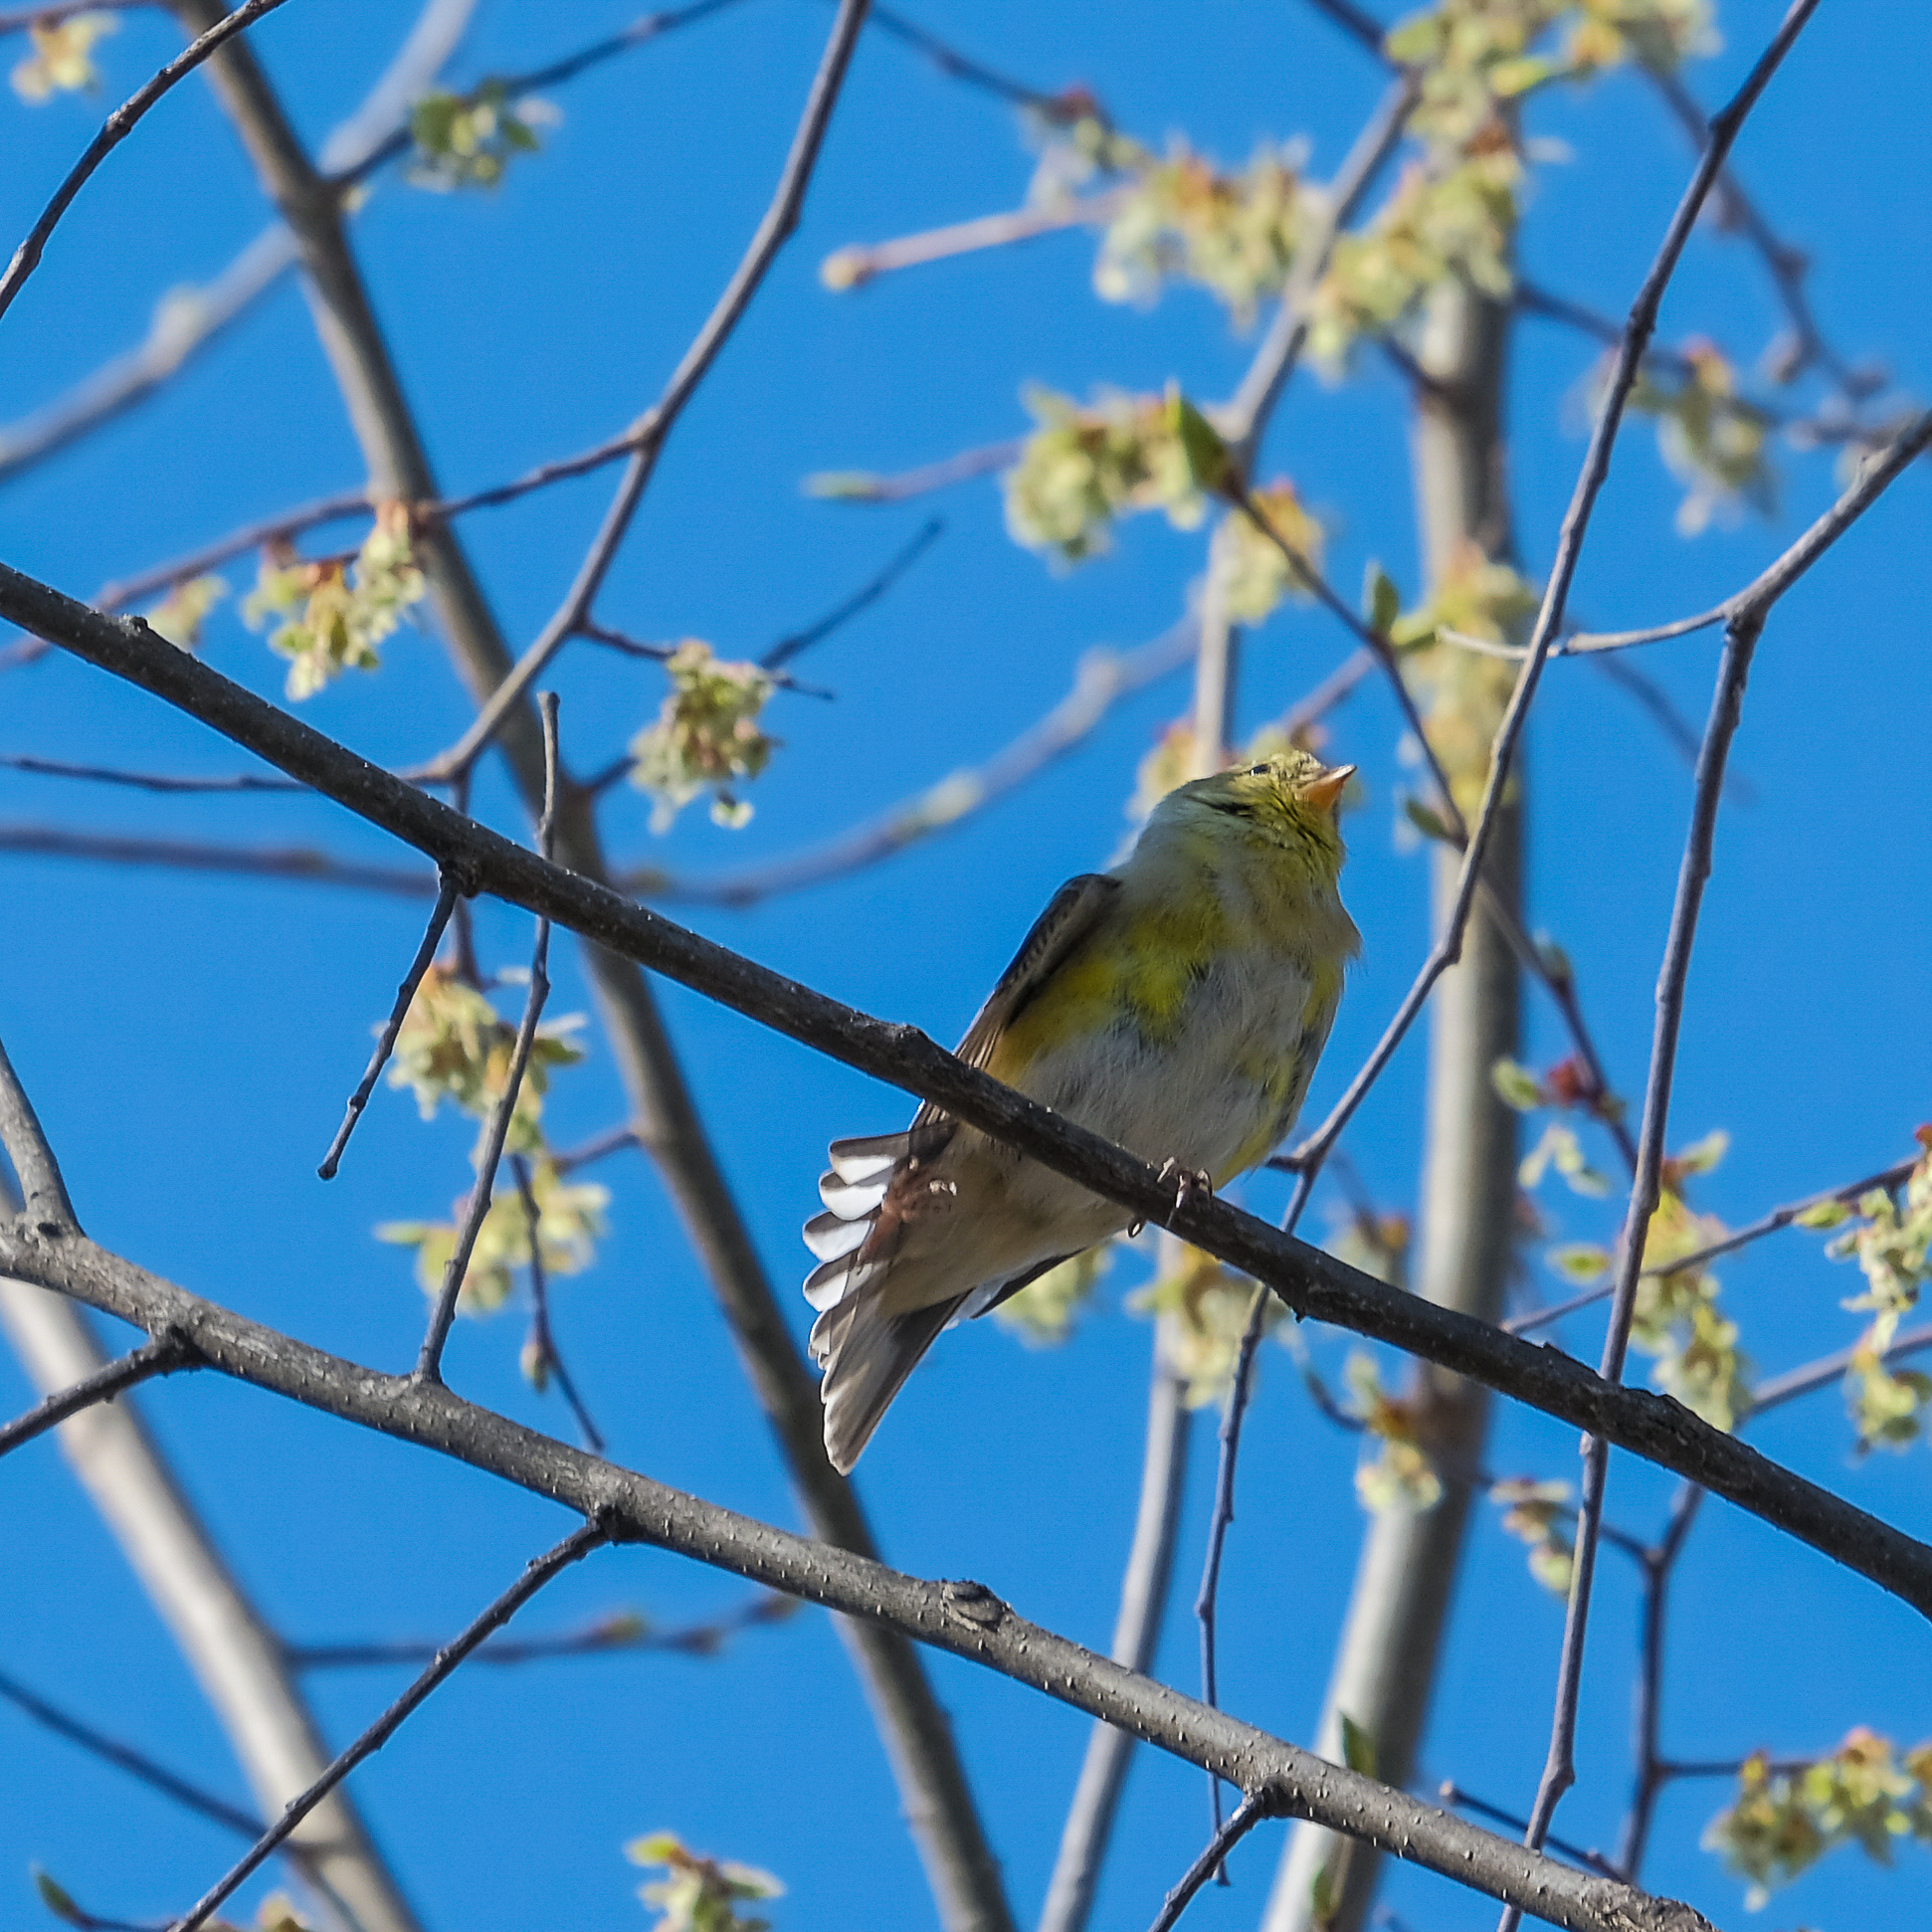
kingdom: Animalia
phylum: Chordata
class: Aves
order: Passeriformes
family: Fringillidae
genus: Spinus
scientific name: Spinus tristis
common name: American goldfinch
